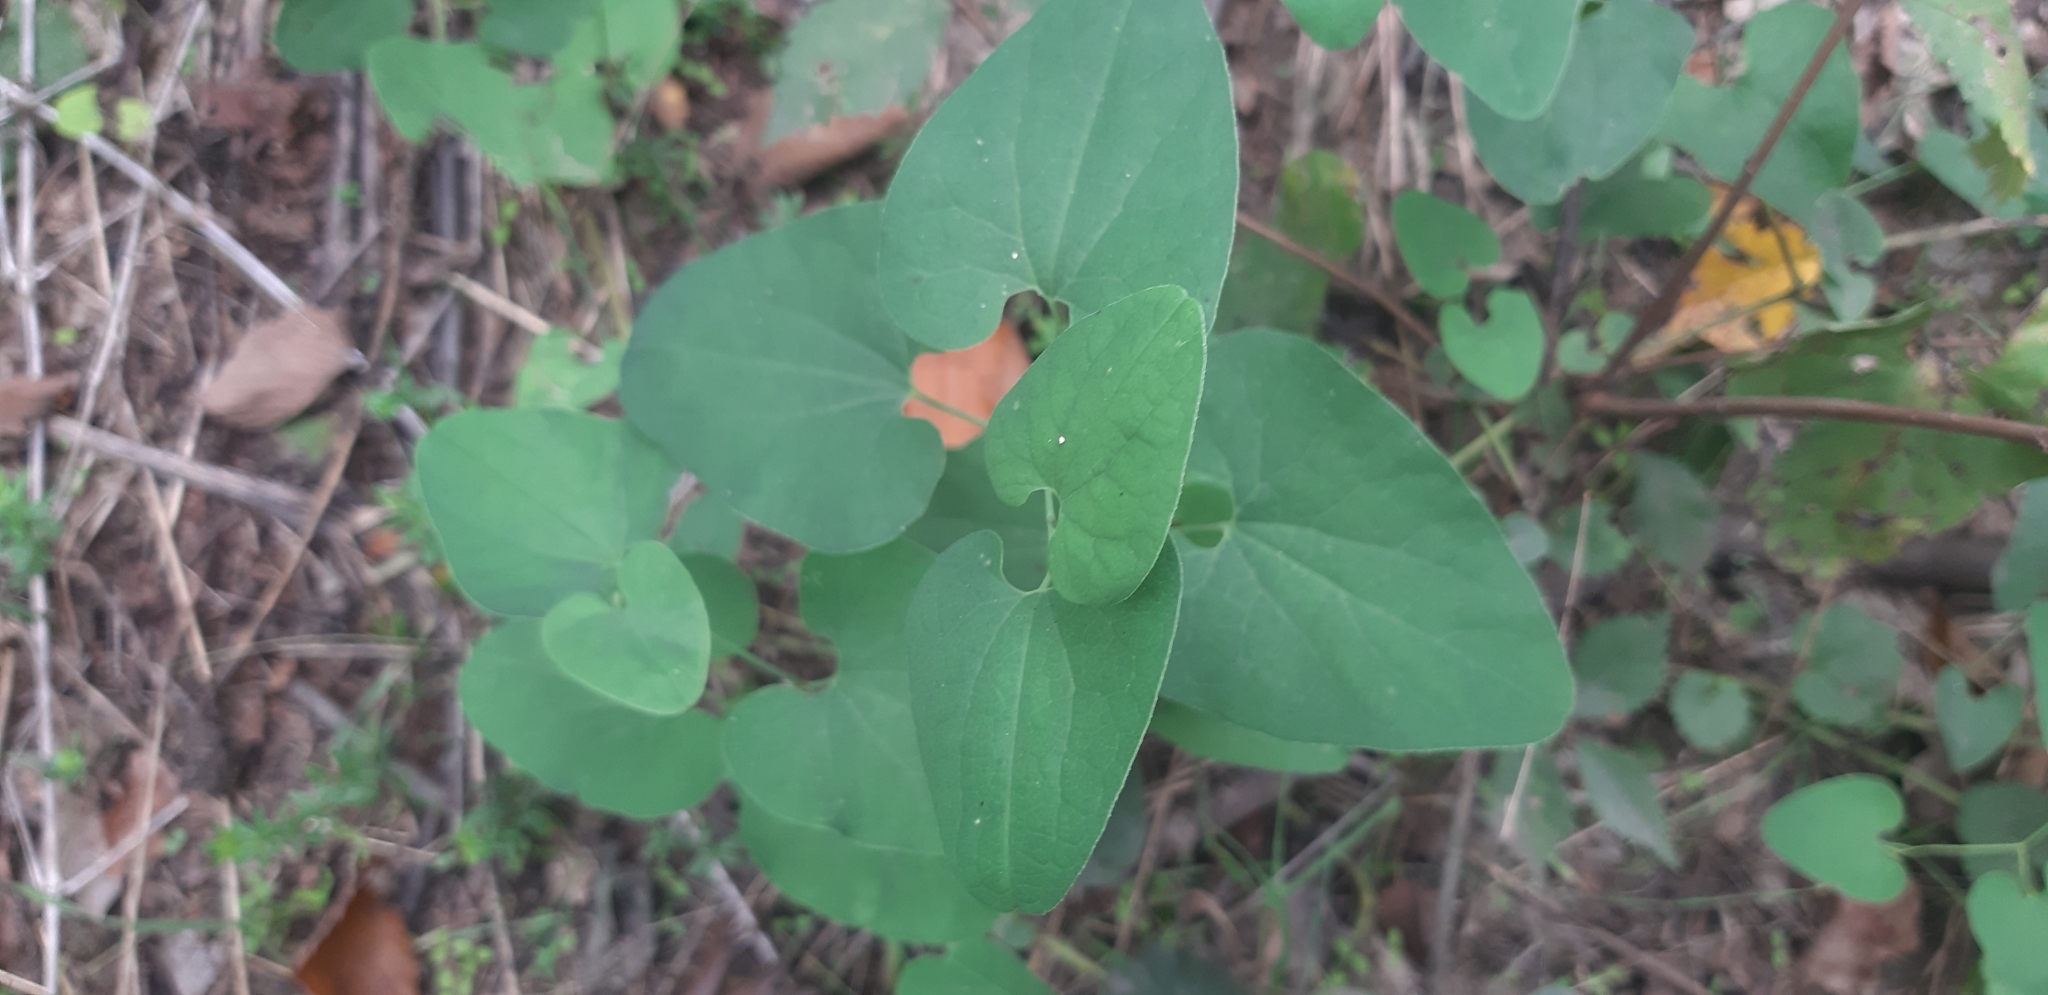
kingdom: Plantae
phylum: Tracheophyta
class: Magnoliopsida
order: Piperales
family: Aristolochiaceae
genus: Aristolochia
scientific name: Aristolochia clematitis
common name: Birthwort
